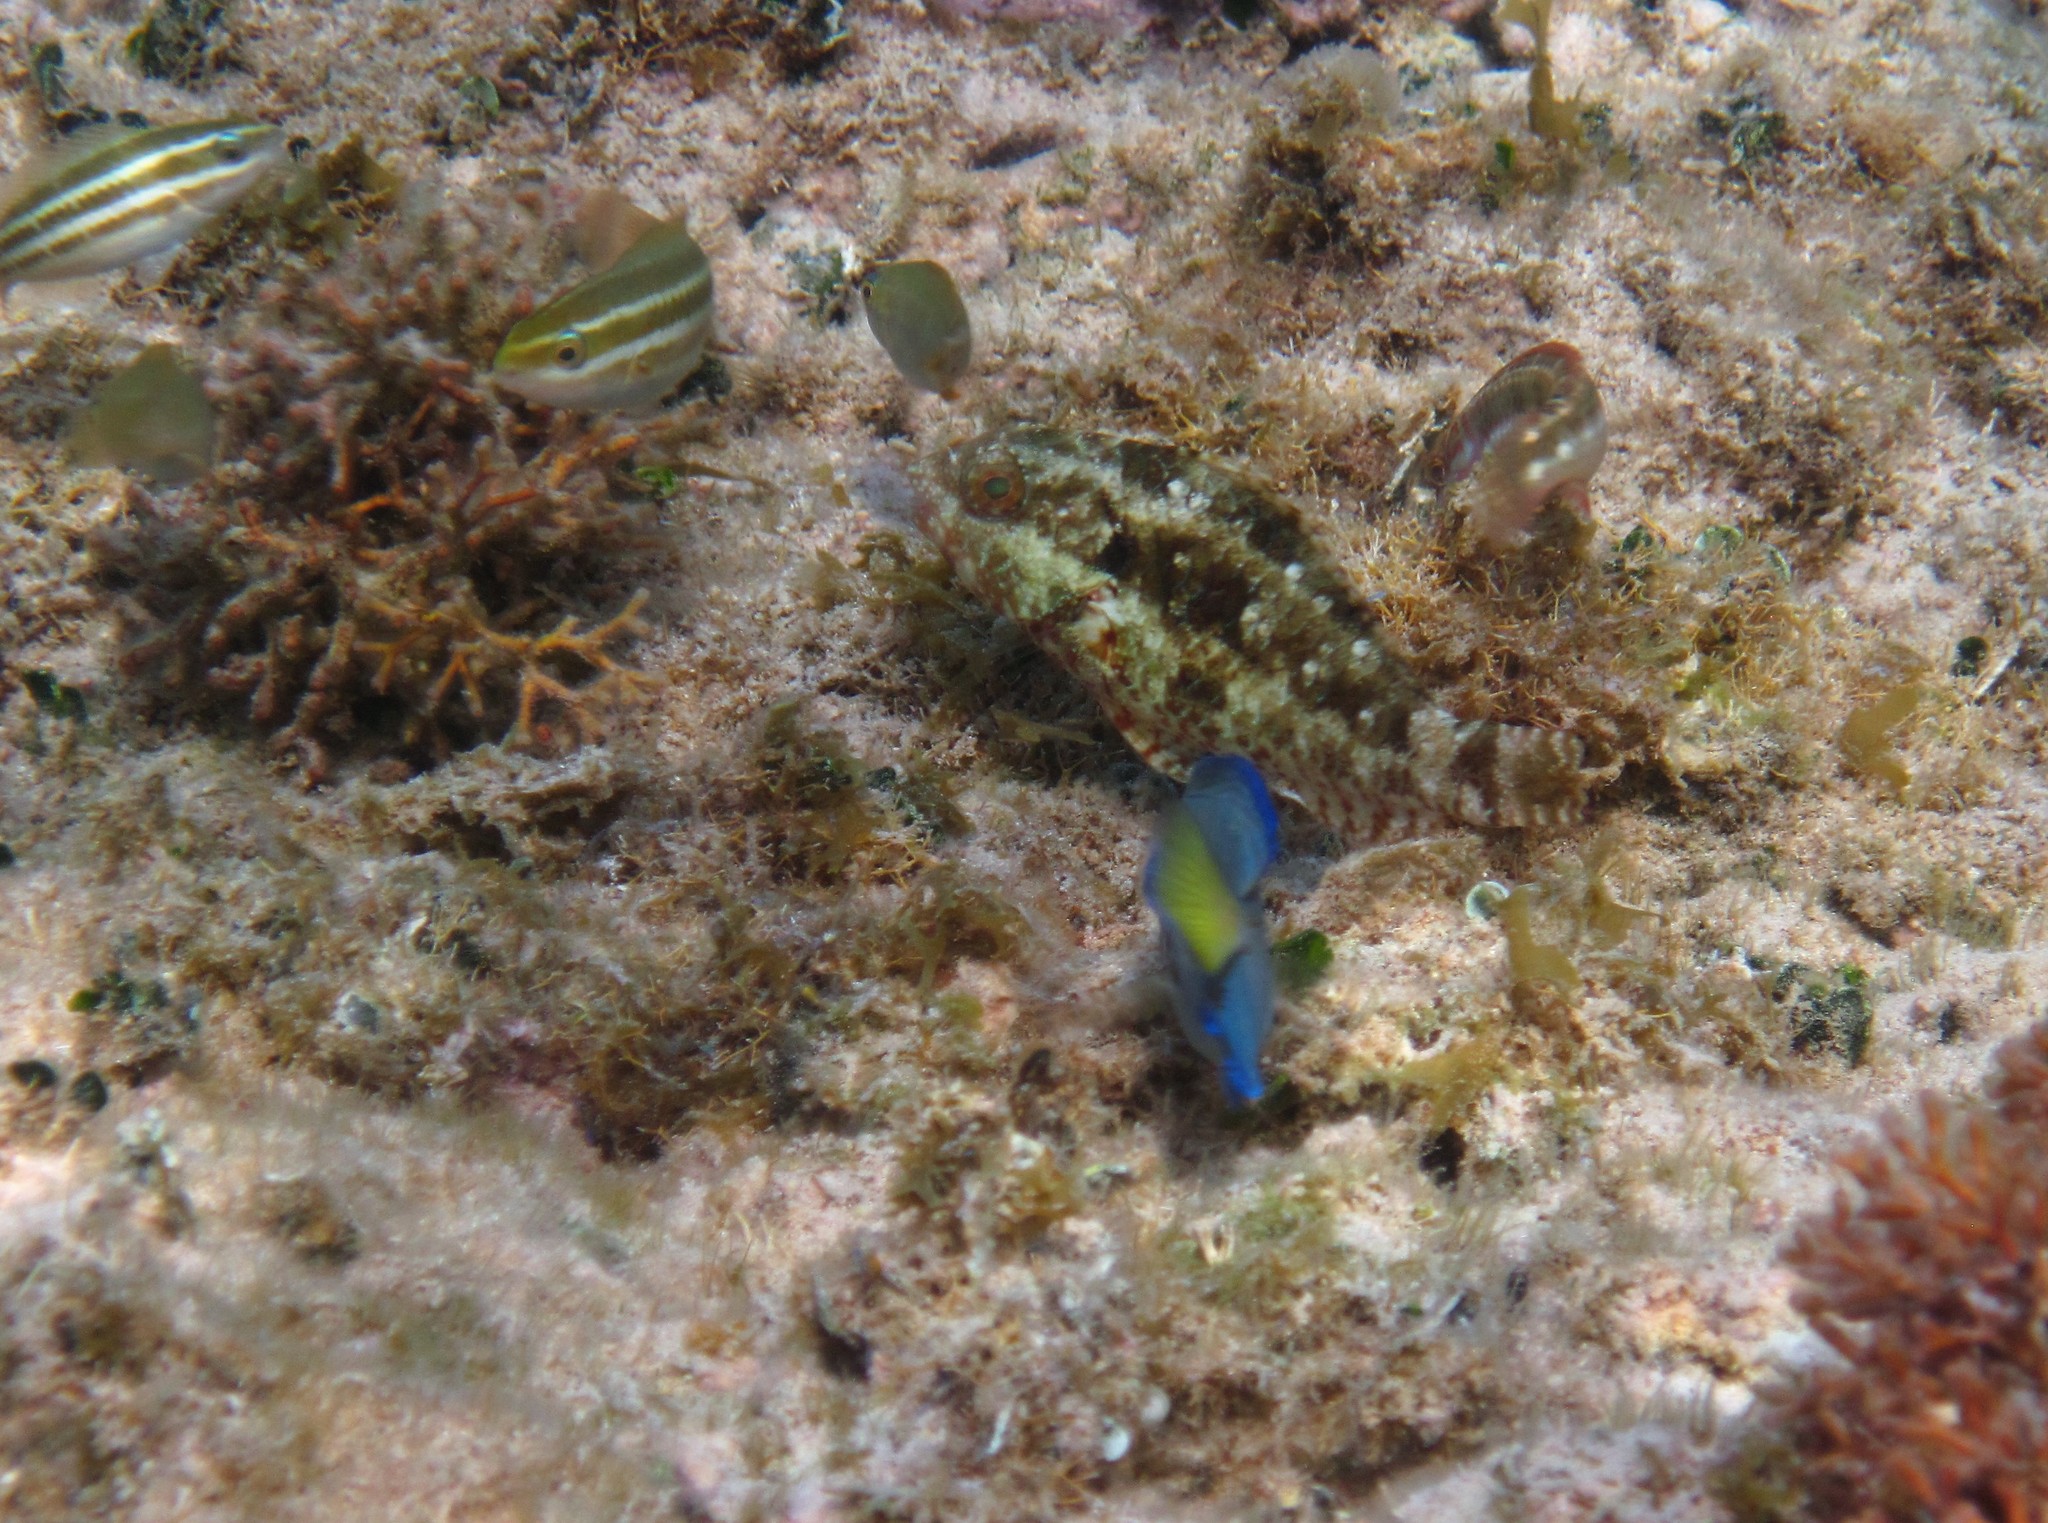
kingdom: Animalia
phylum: Chordata
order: Perciformes
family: Acanthuridae
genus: Acanthurus
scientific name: Acanthurus coeruleus
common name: Blue tang
